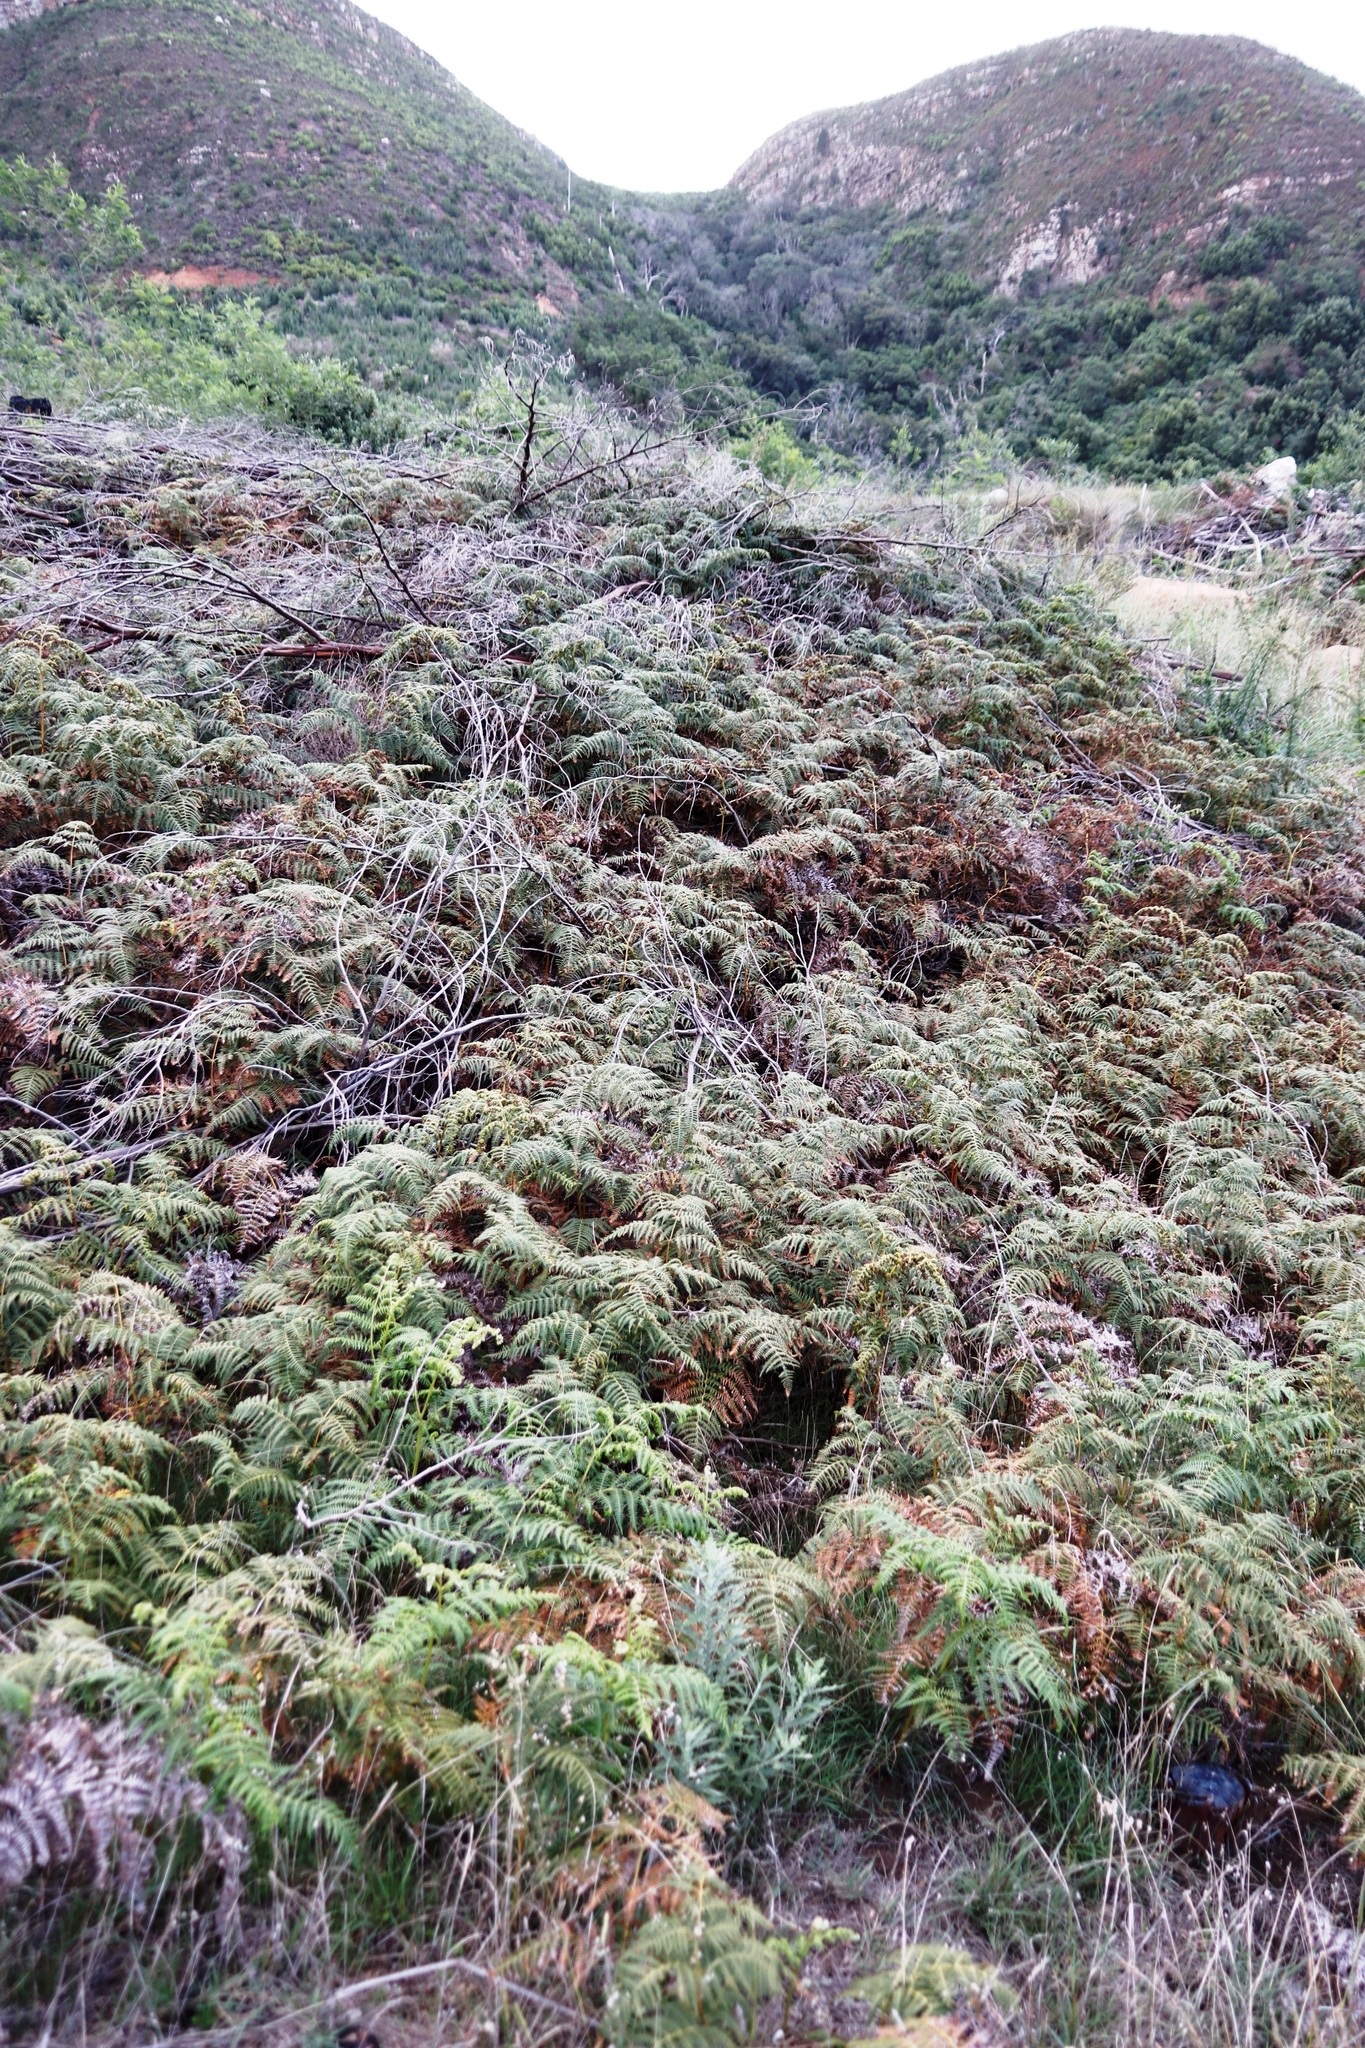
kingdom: Plantae
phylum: Tracheophyta
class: Polypodiopsida
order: Polypodiales
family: Dennstaedtiaceae
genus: Pteridium
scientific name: Pteridium aquilinum
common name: Bracken
